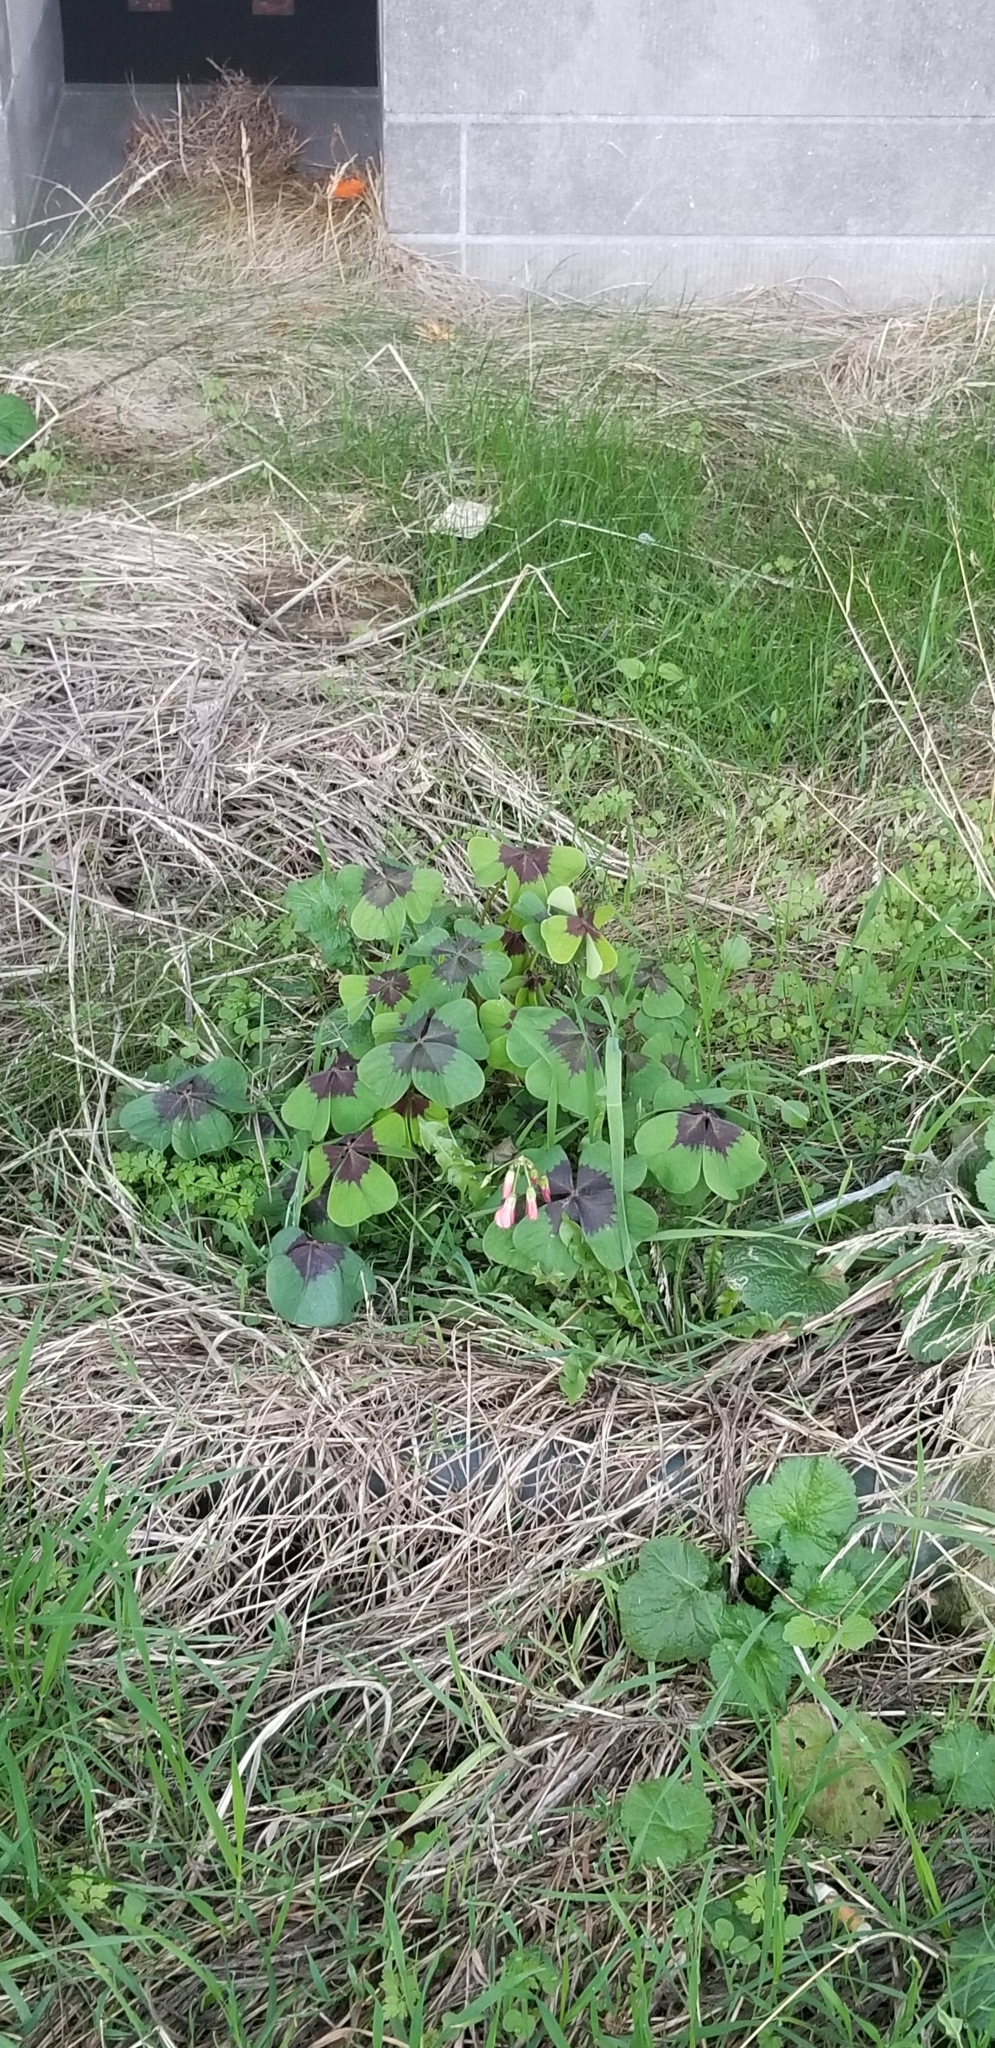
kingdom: Plantae
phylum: Tracheophyta
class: Magnoliopsida
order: Oxalidales
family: Oxalidaceae
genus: Oxalis
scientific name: Oxalis tetraphylla
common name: Four-leaved pink-sorrel
